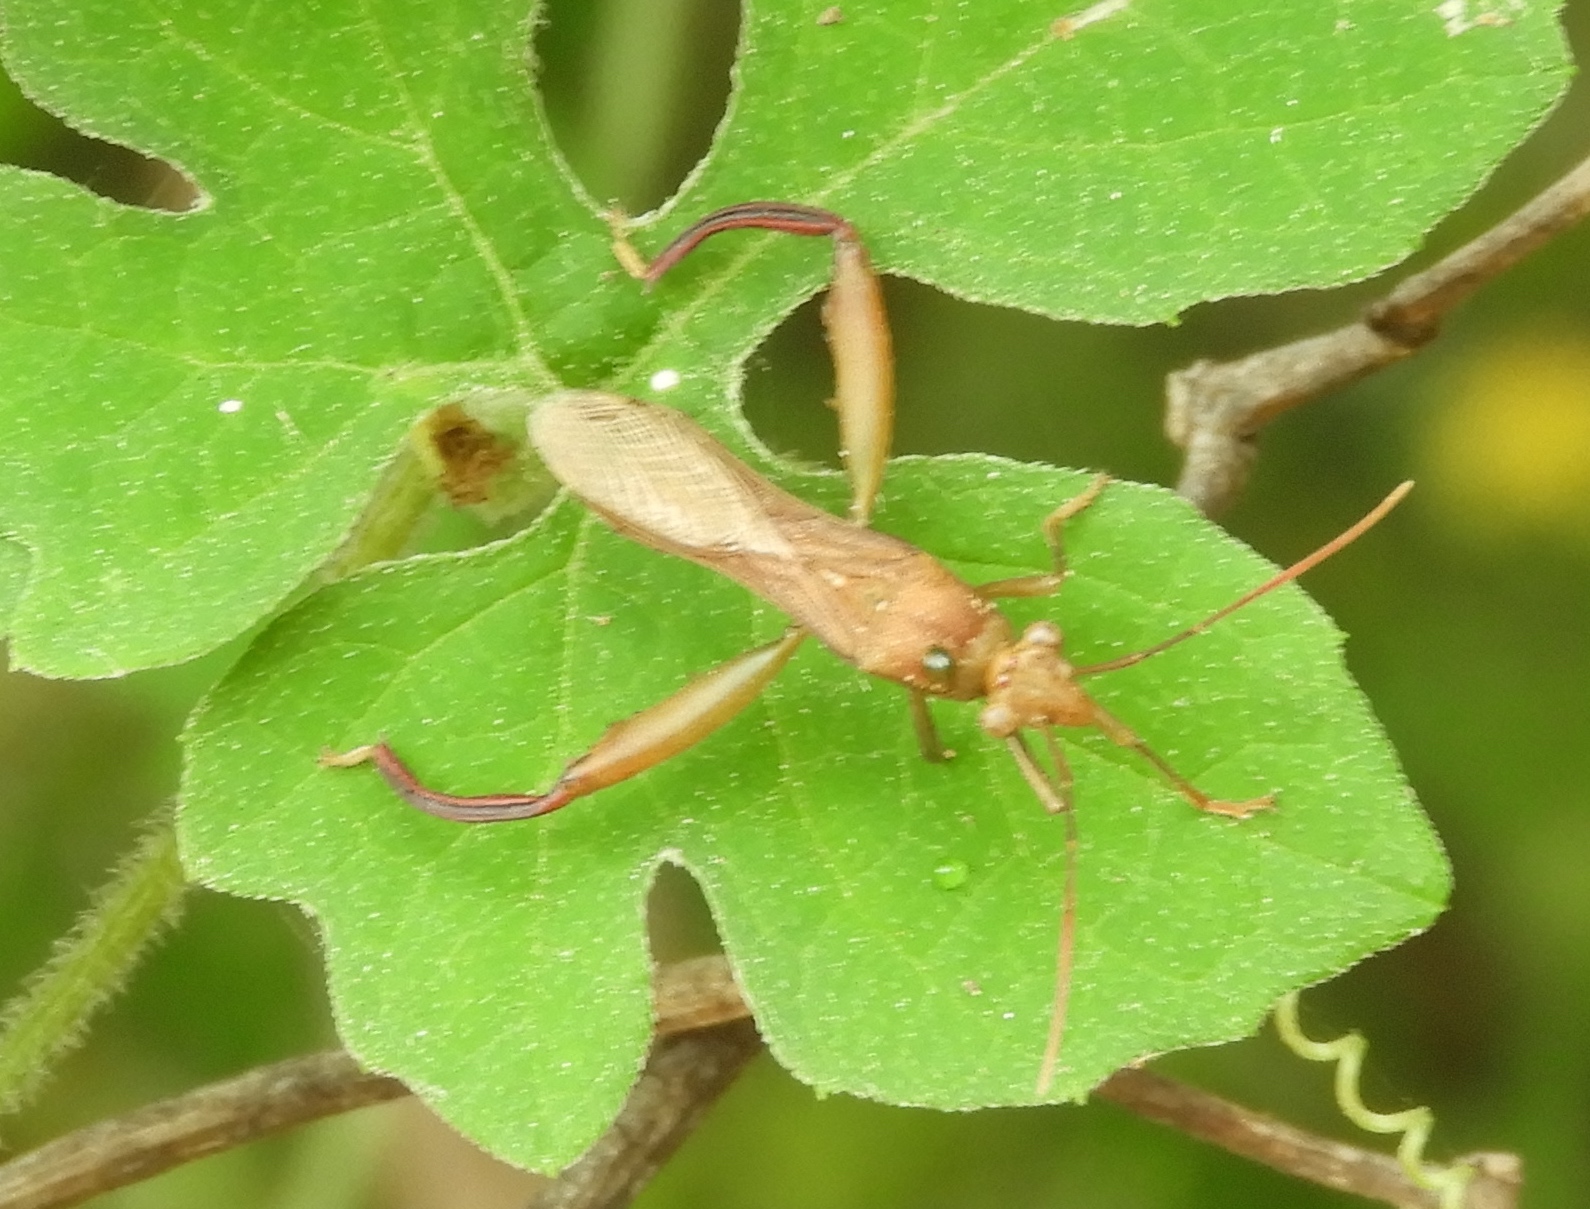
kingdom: Animalia
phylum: Arthropoda
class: Insecta
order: Hemiptera
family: Alydidae
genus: Hyalymenus
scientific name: Hyalymenus
